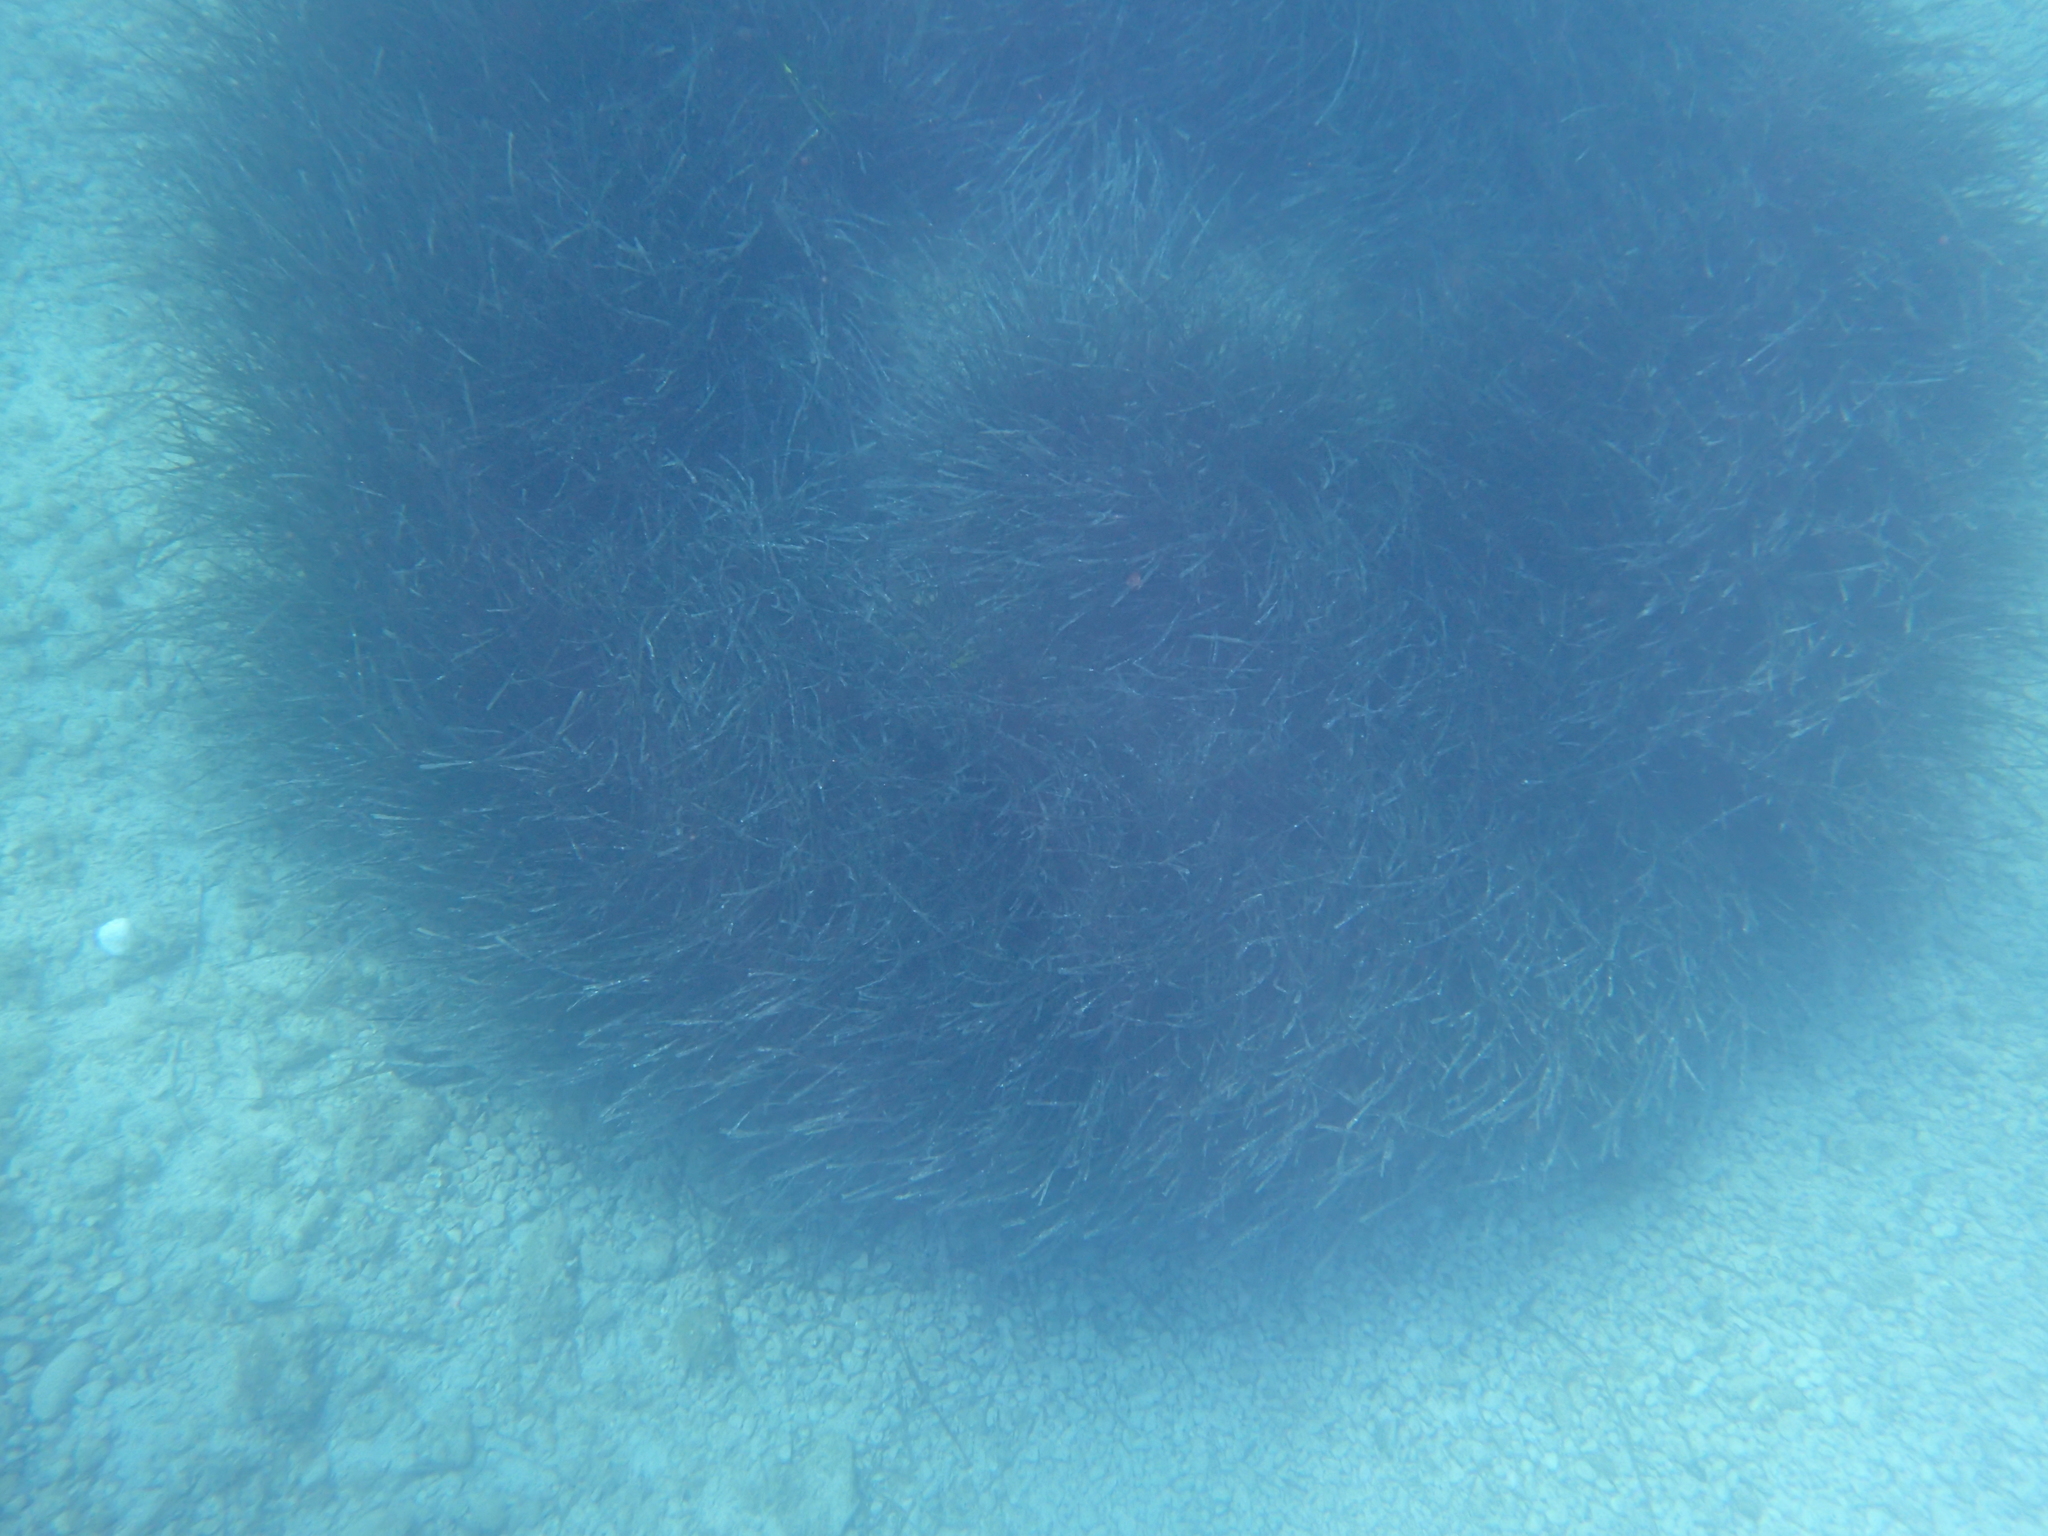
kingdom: Plantae
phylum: Tracheophyta
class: Liliopsida
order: Alismatales
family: Posidoniaceae
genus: Posidonia
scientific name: Posidonia oceanica
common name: Mediterranean tapeweed
